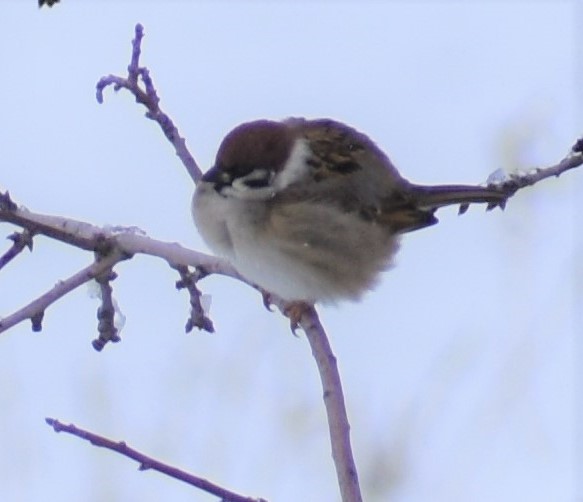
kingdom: Animalia
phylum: Chordata
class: Aves
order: Passeriformes
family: Passeridae
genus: Passer
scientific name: Passer montanus
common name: Eurasian tree sparrow
